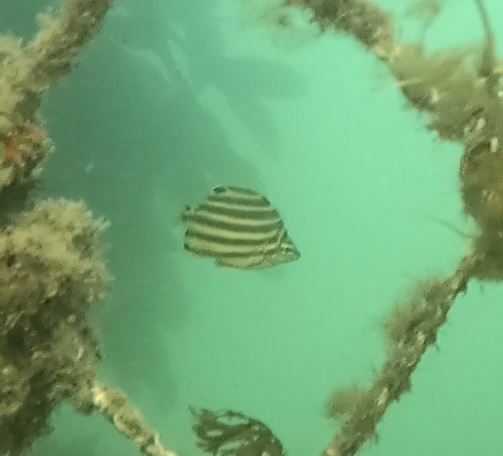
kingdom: Animalia
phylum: Chordata
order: Perciformes
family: Kyphosidae
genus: Microcanthus
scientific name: Microcanthus joyceae
